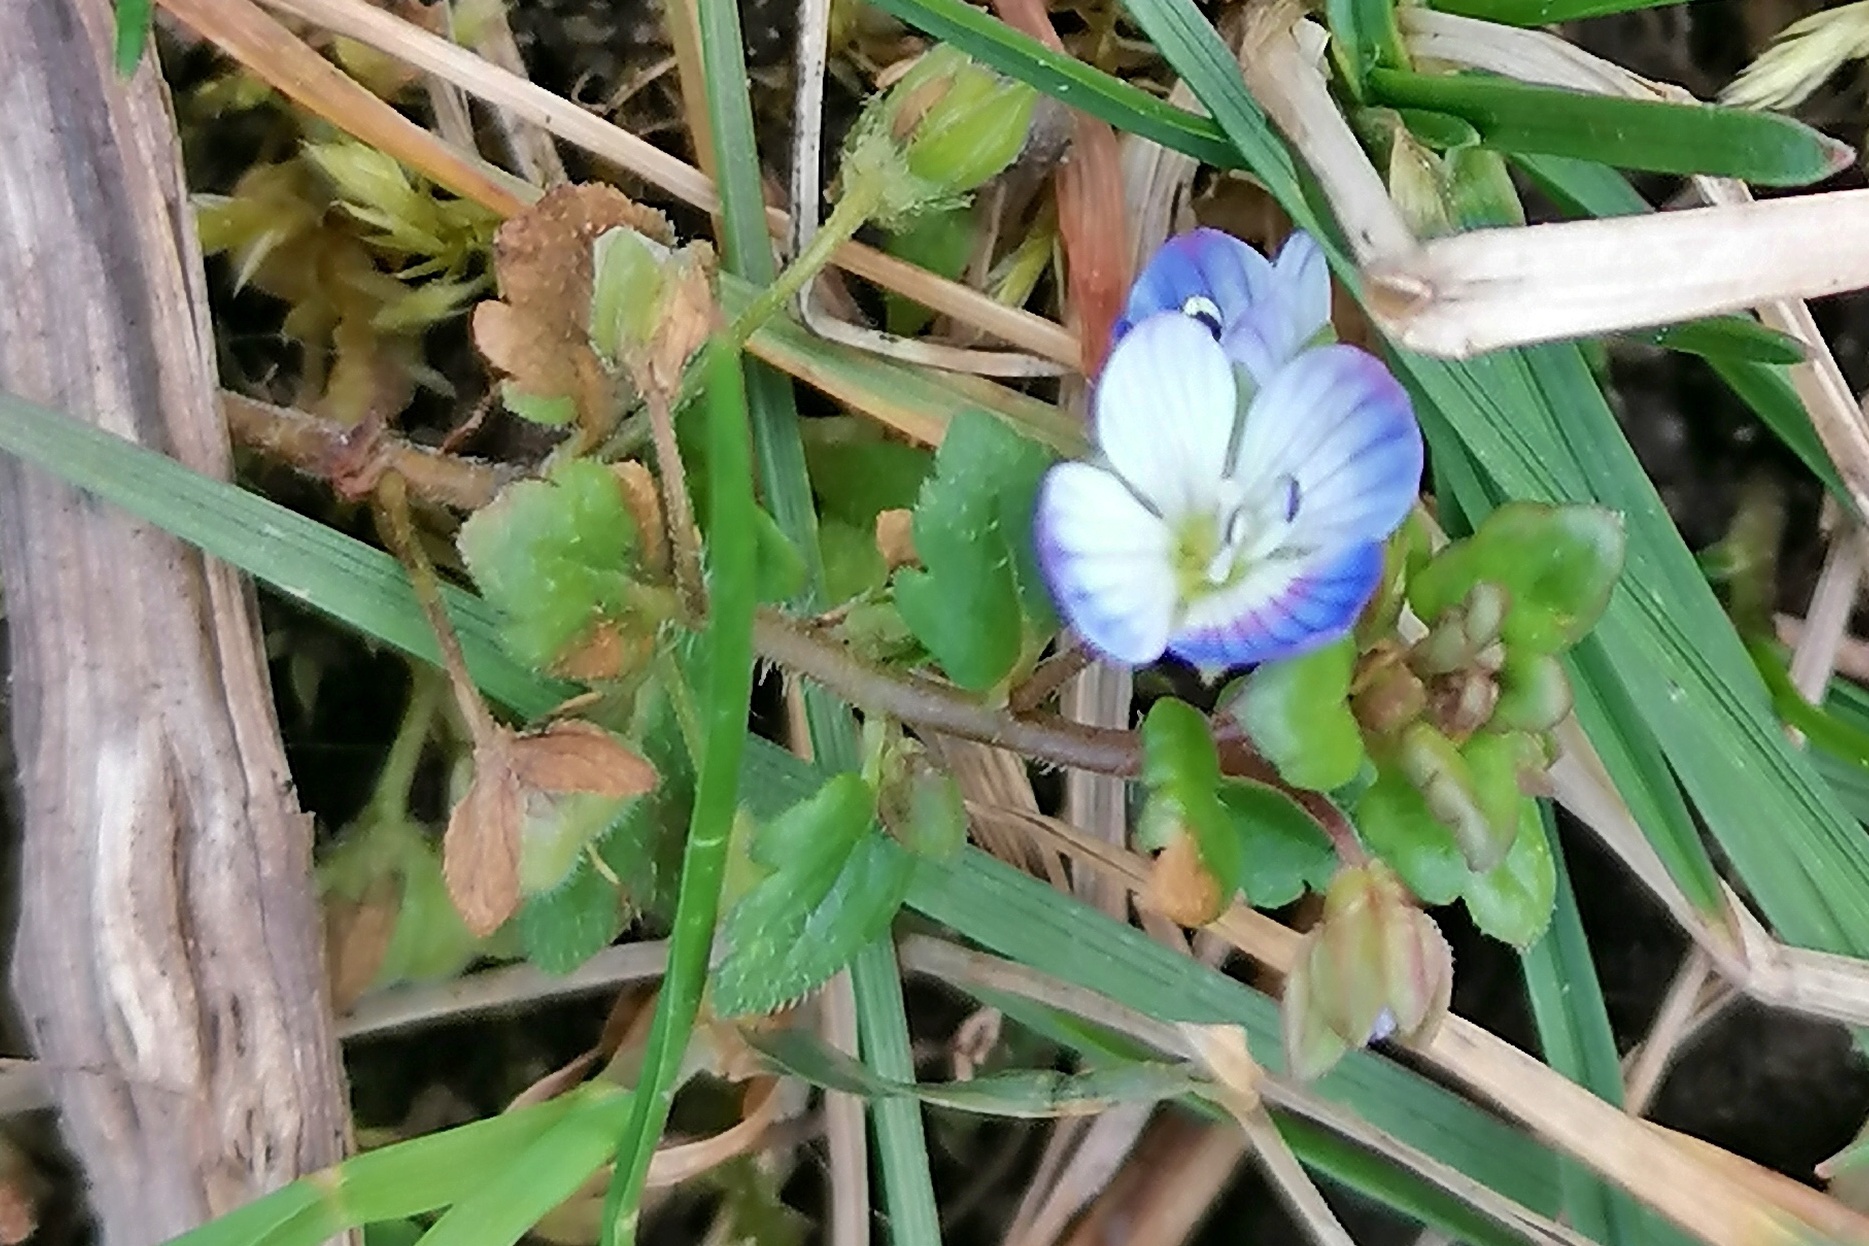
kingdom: Plantae
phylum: Tracheophyta
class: Magnoliopsida
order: Lamiales
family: Plantaginaceae
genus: Veronica
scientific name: Veronica polita
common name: Grey field-speedwell
